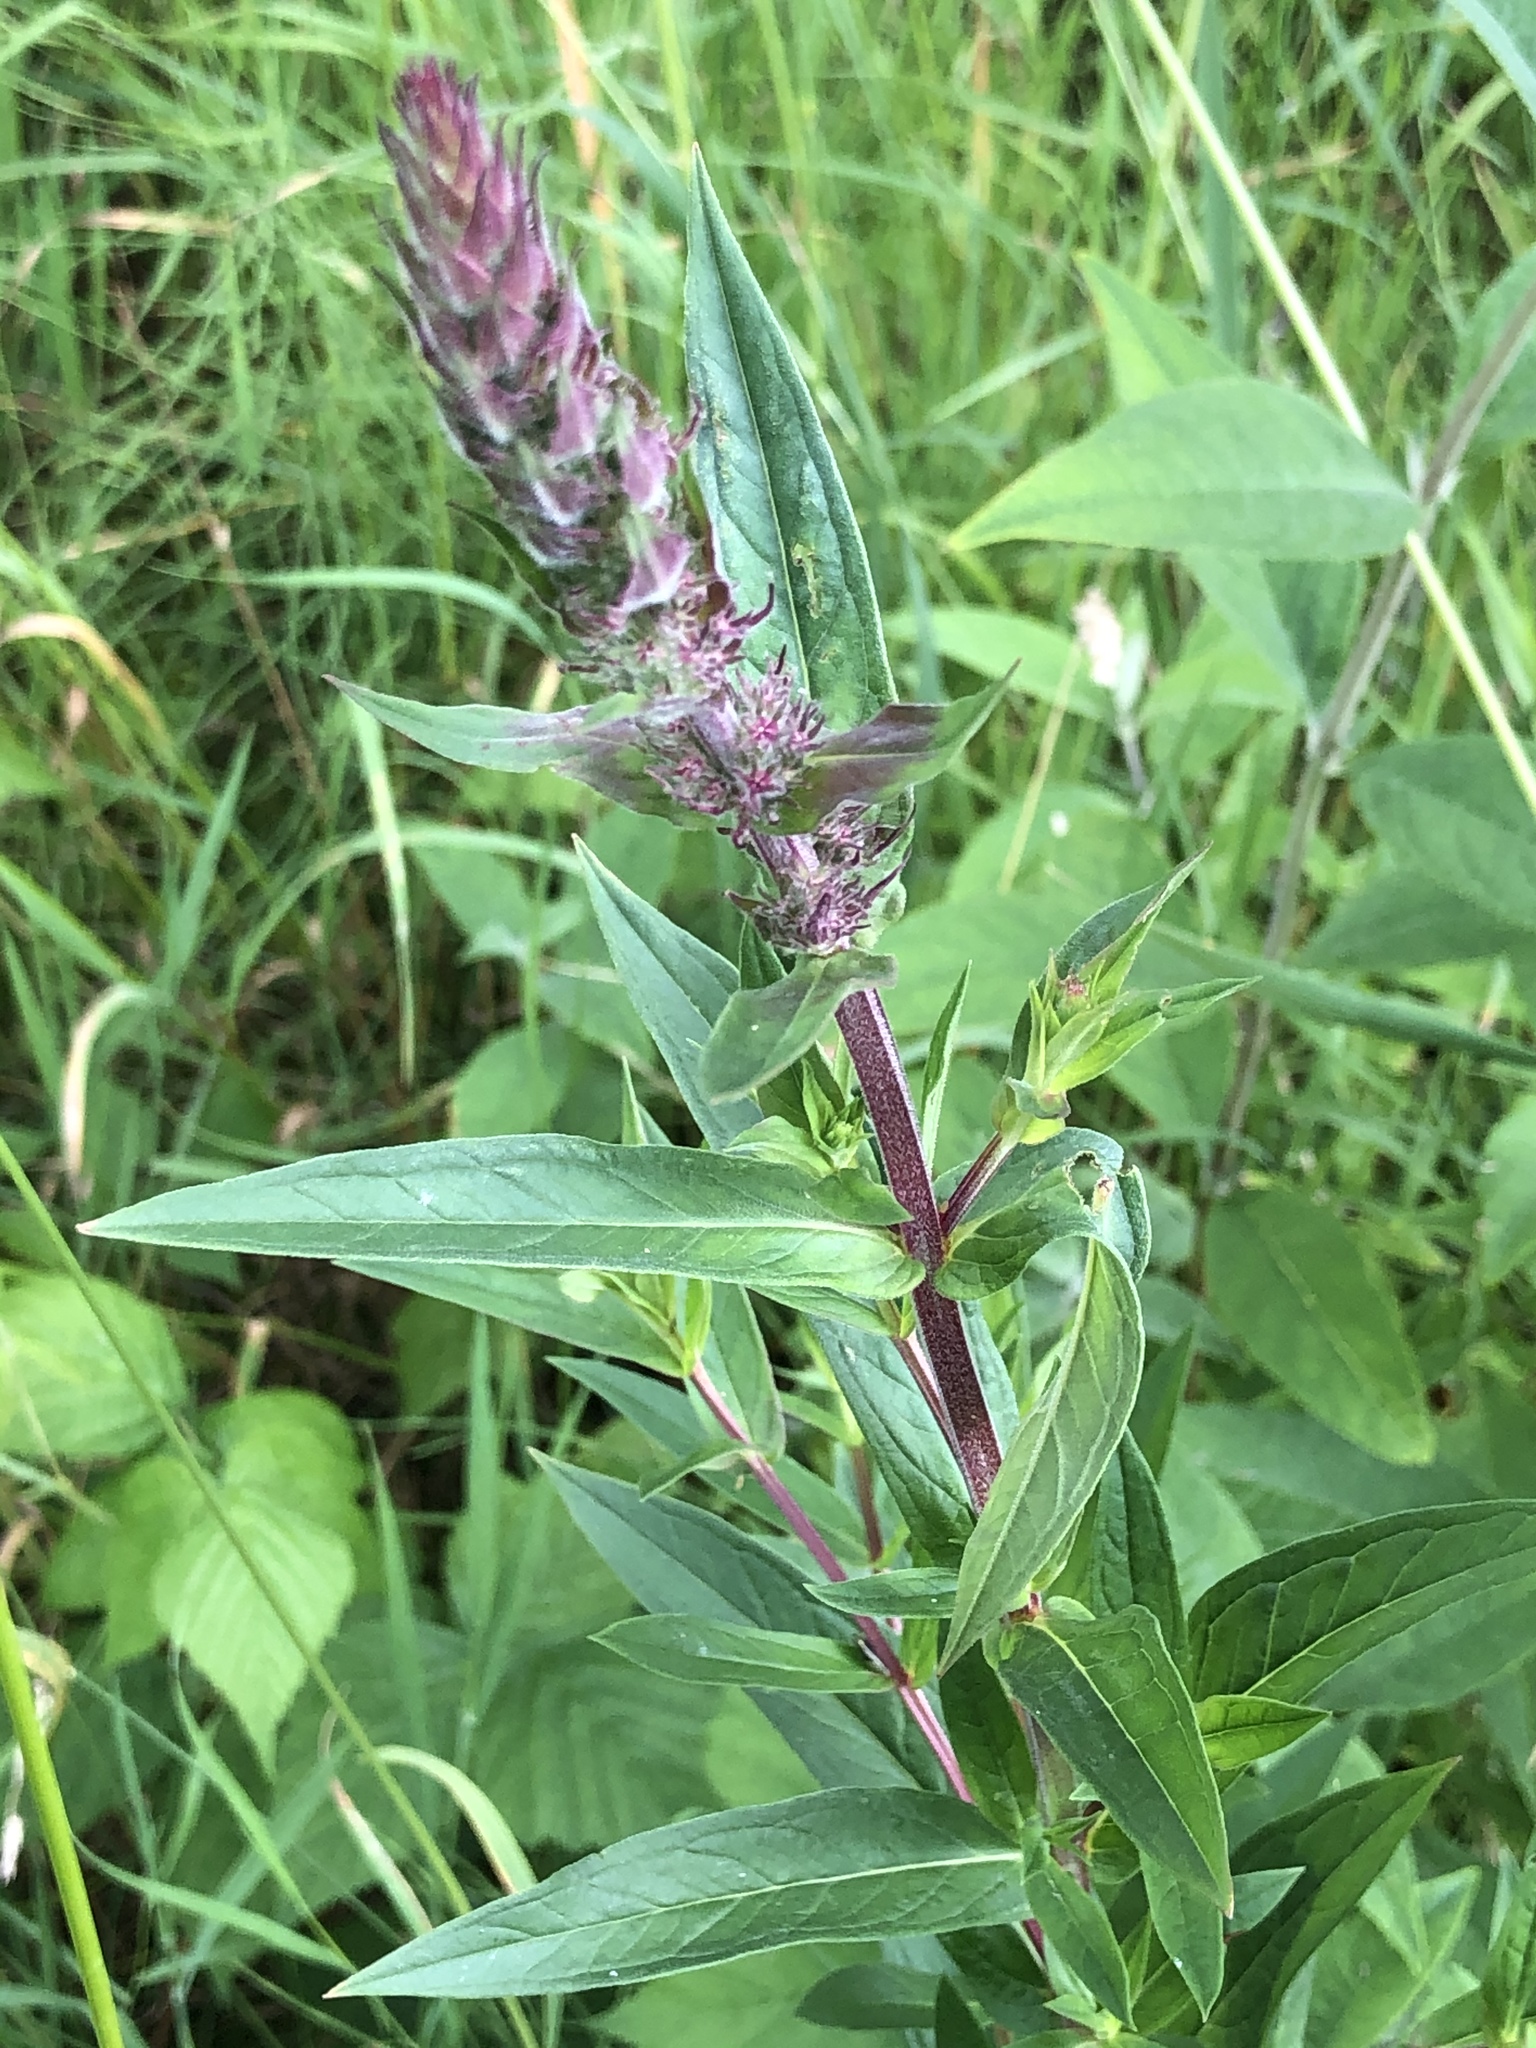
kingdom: Plantae
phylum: Tracheophyta
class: Magnoliopsida
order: Myrtales
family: Lythraceae
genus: Lythrum
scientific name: Lythrum salicaria
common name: Purple loosestrife
